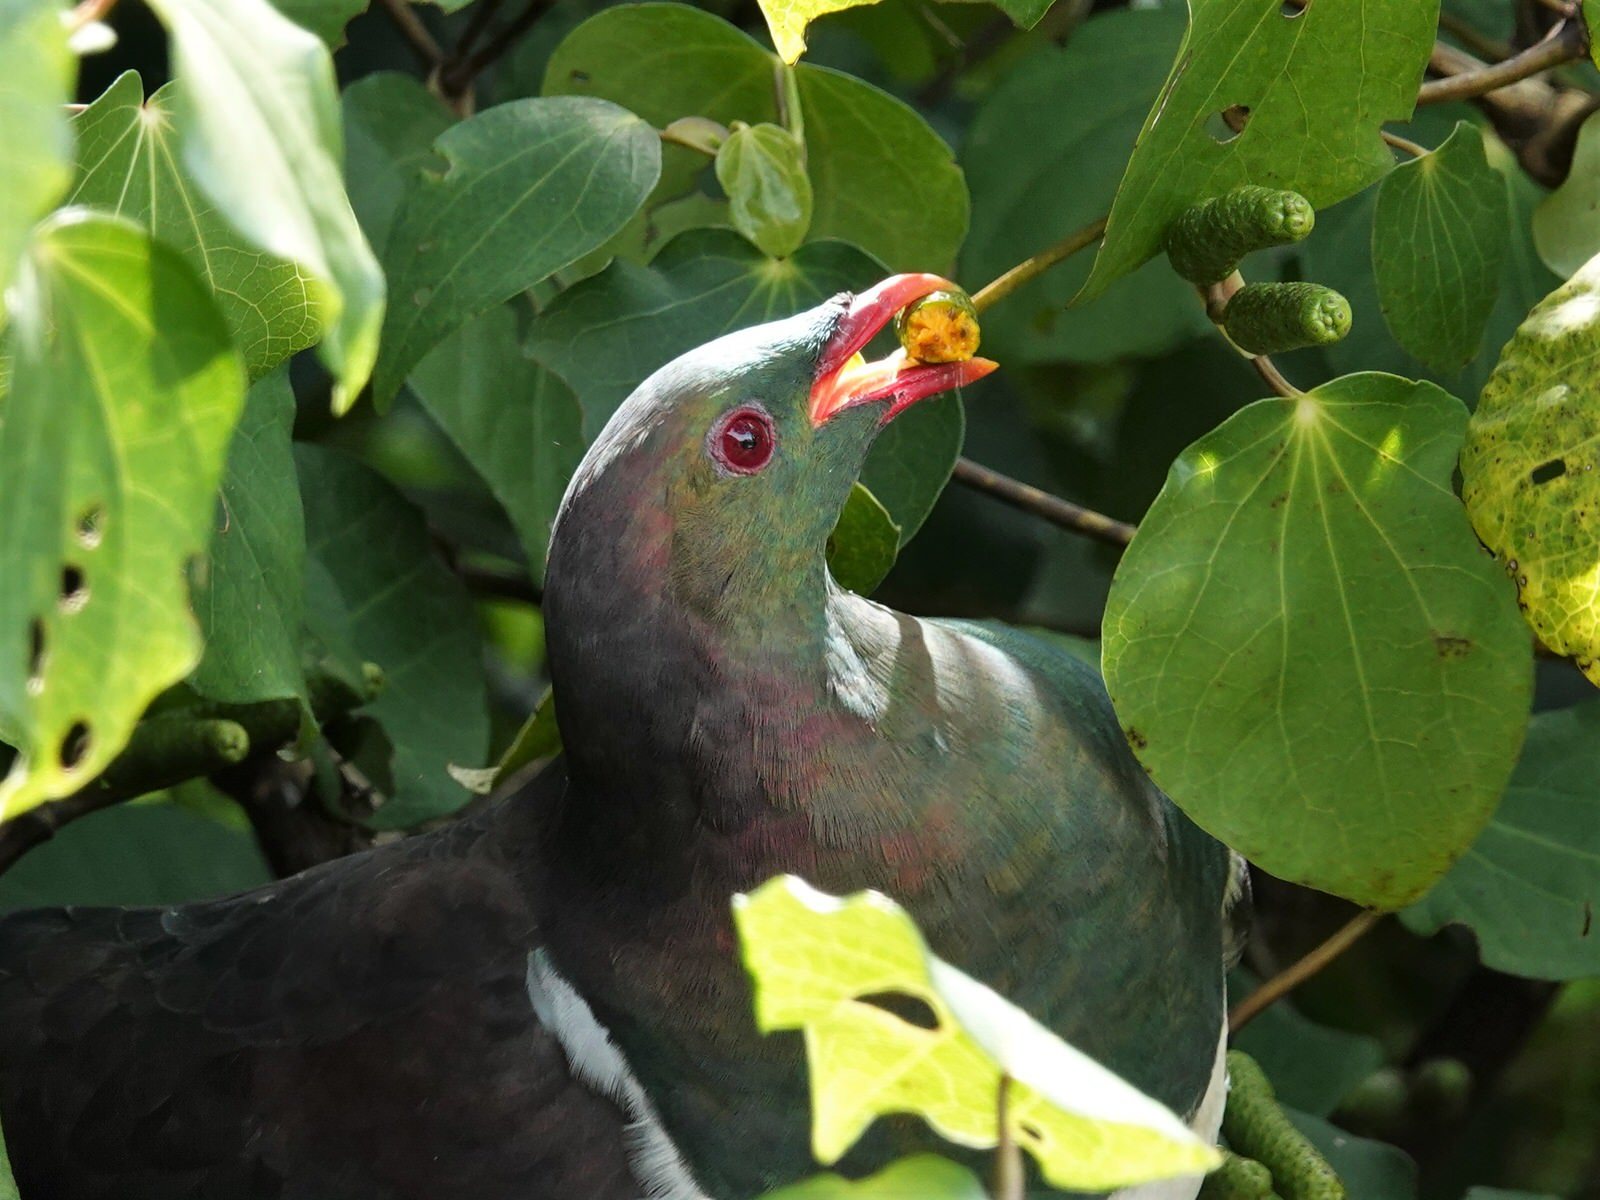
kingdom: Animalia
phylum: Chordata
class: Aves
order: Columbiformes
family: Columbidae
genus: Hemiphaga
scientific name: Hemiphaga novaeseelandiae
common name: New zealand pigeon
